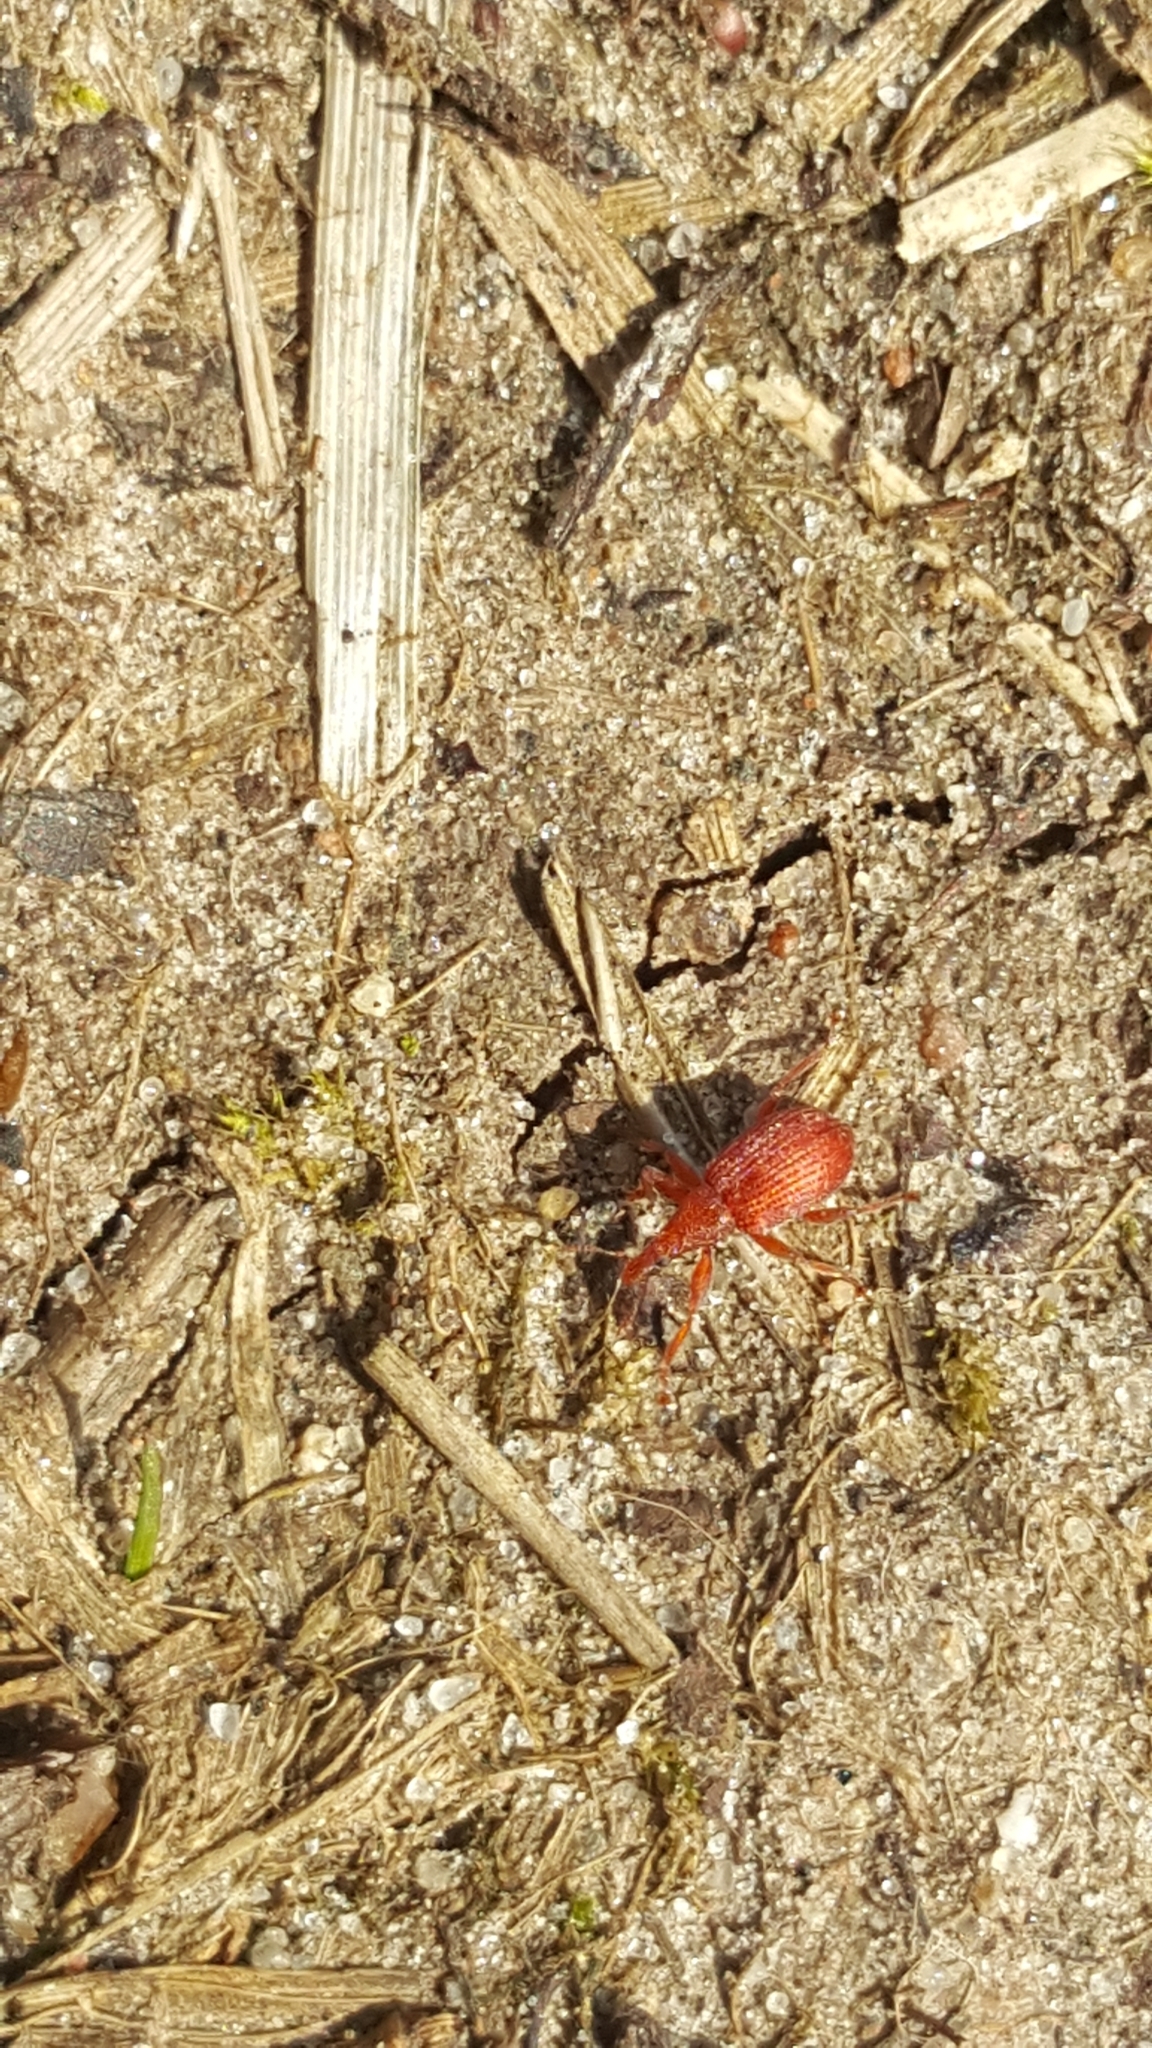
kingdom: Animalia
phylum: Arthropoda
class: Insecta
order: Coleoptera
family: Apionidae
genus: Apion
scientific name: Apion frumentarium
